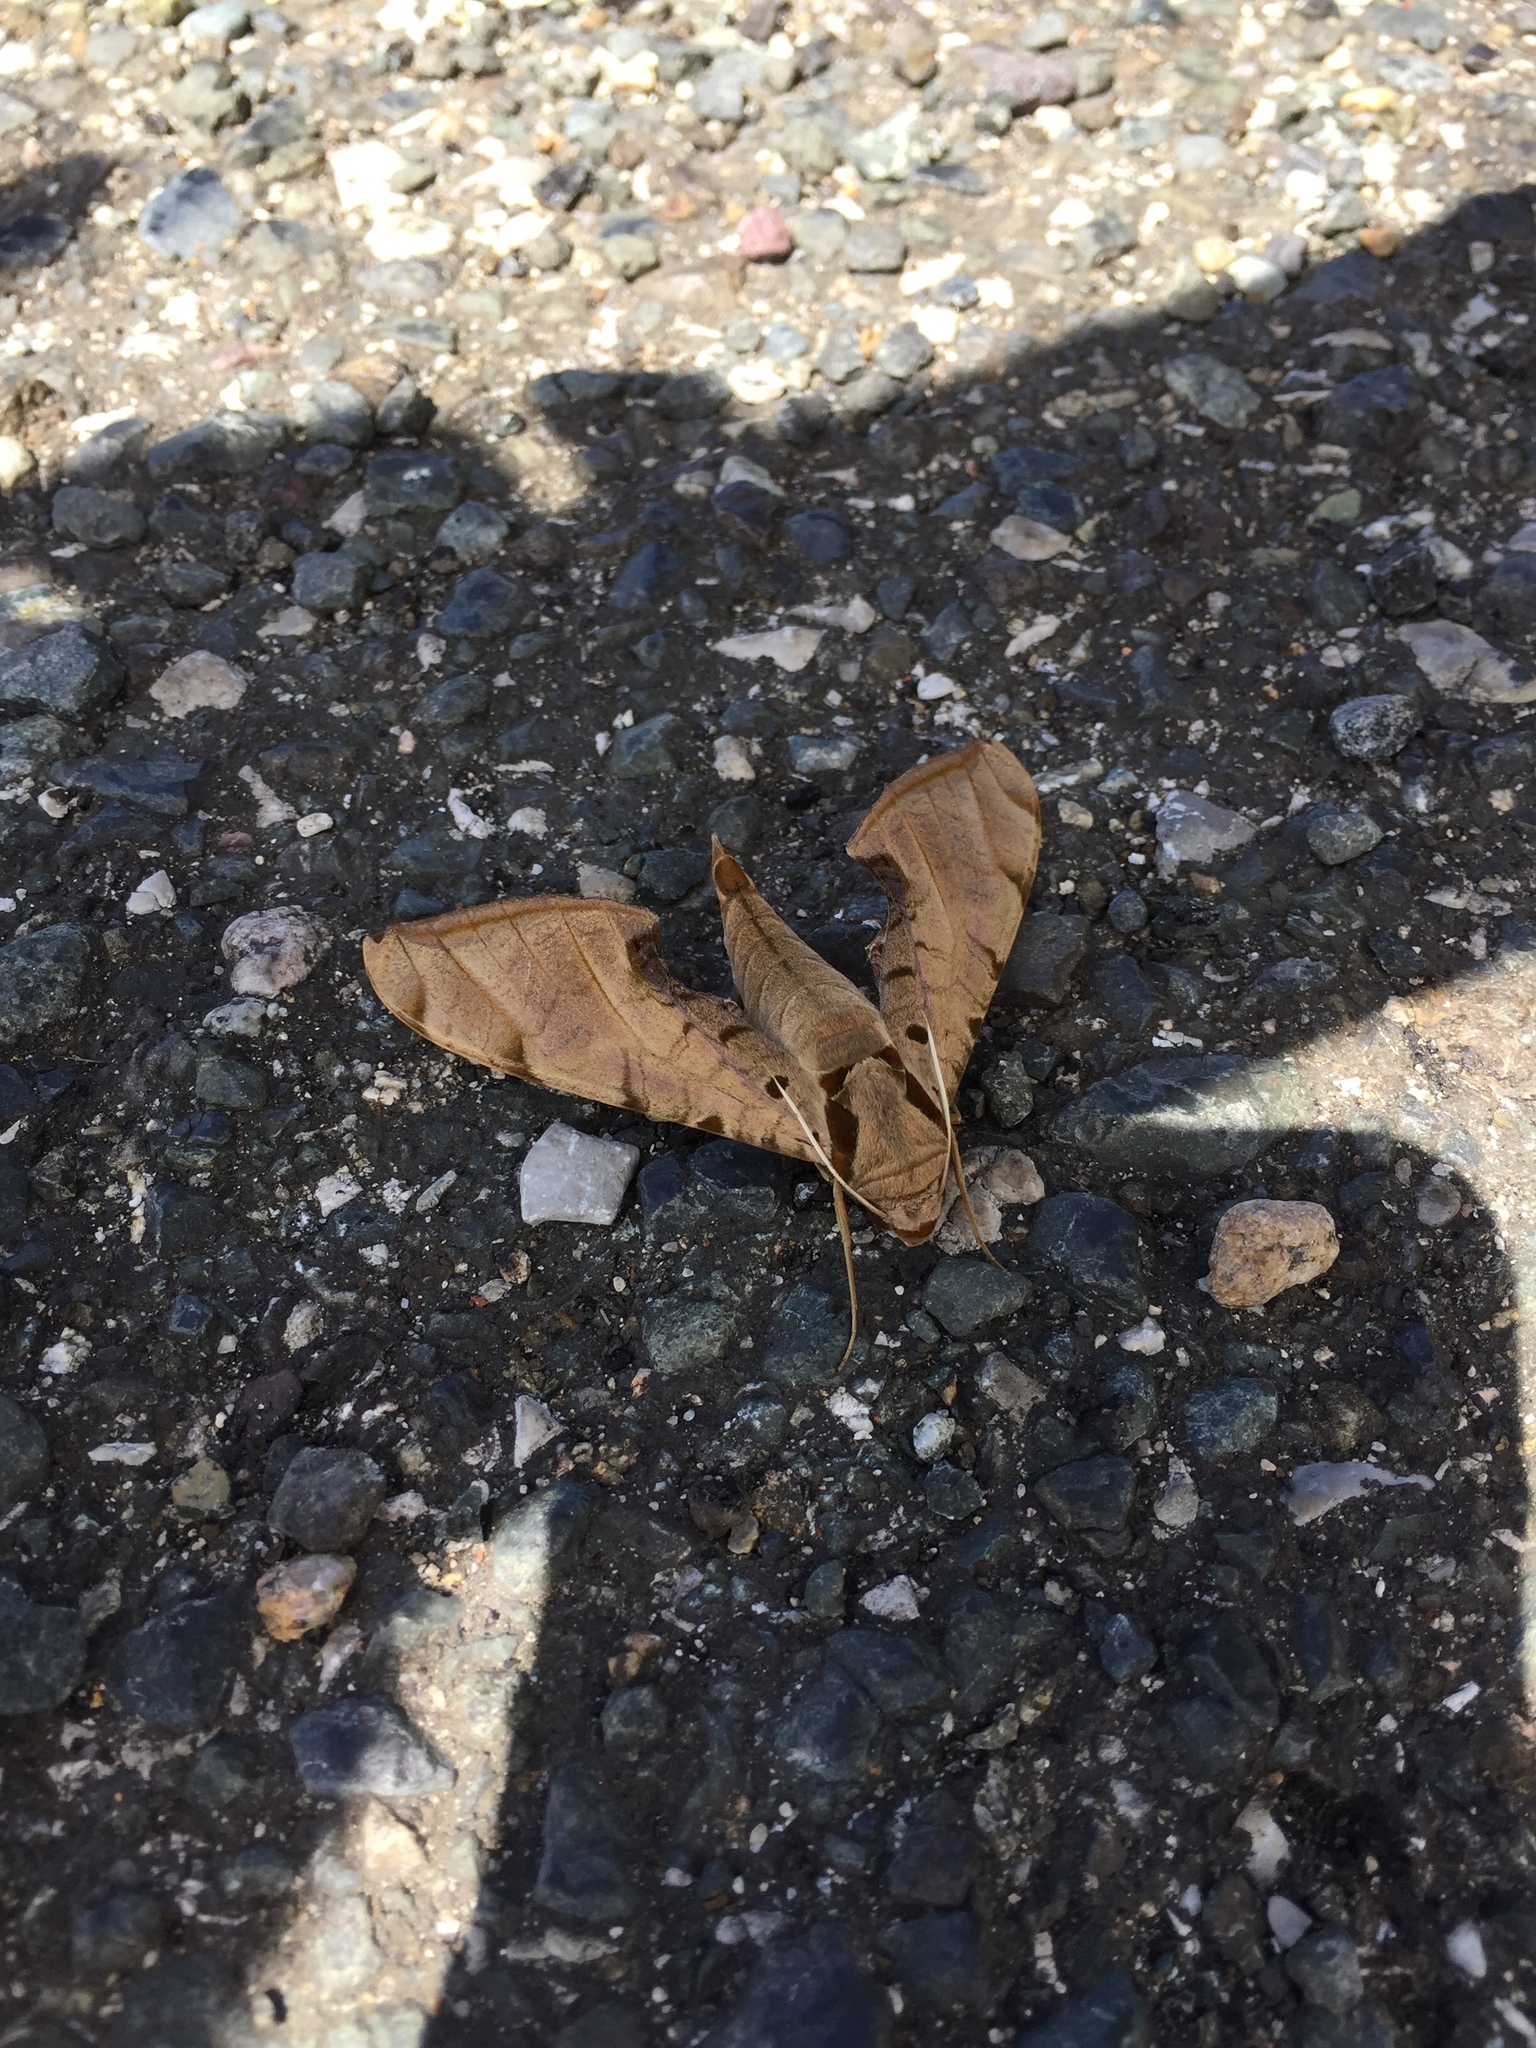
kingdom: Animalia
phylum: Arthropoda
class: Insecta
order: Lepidoptera
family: Sphingidae
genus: Protambulyx
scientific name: Protambulyx strigilis
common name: Streaked sphinx
